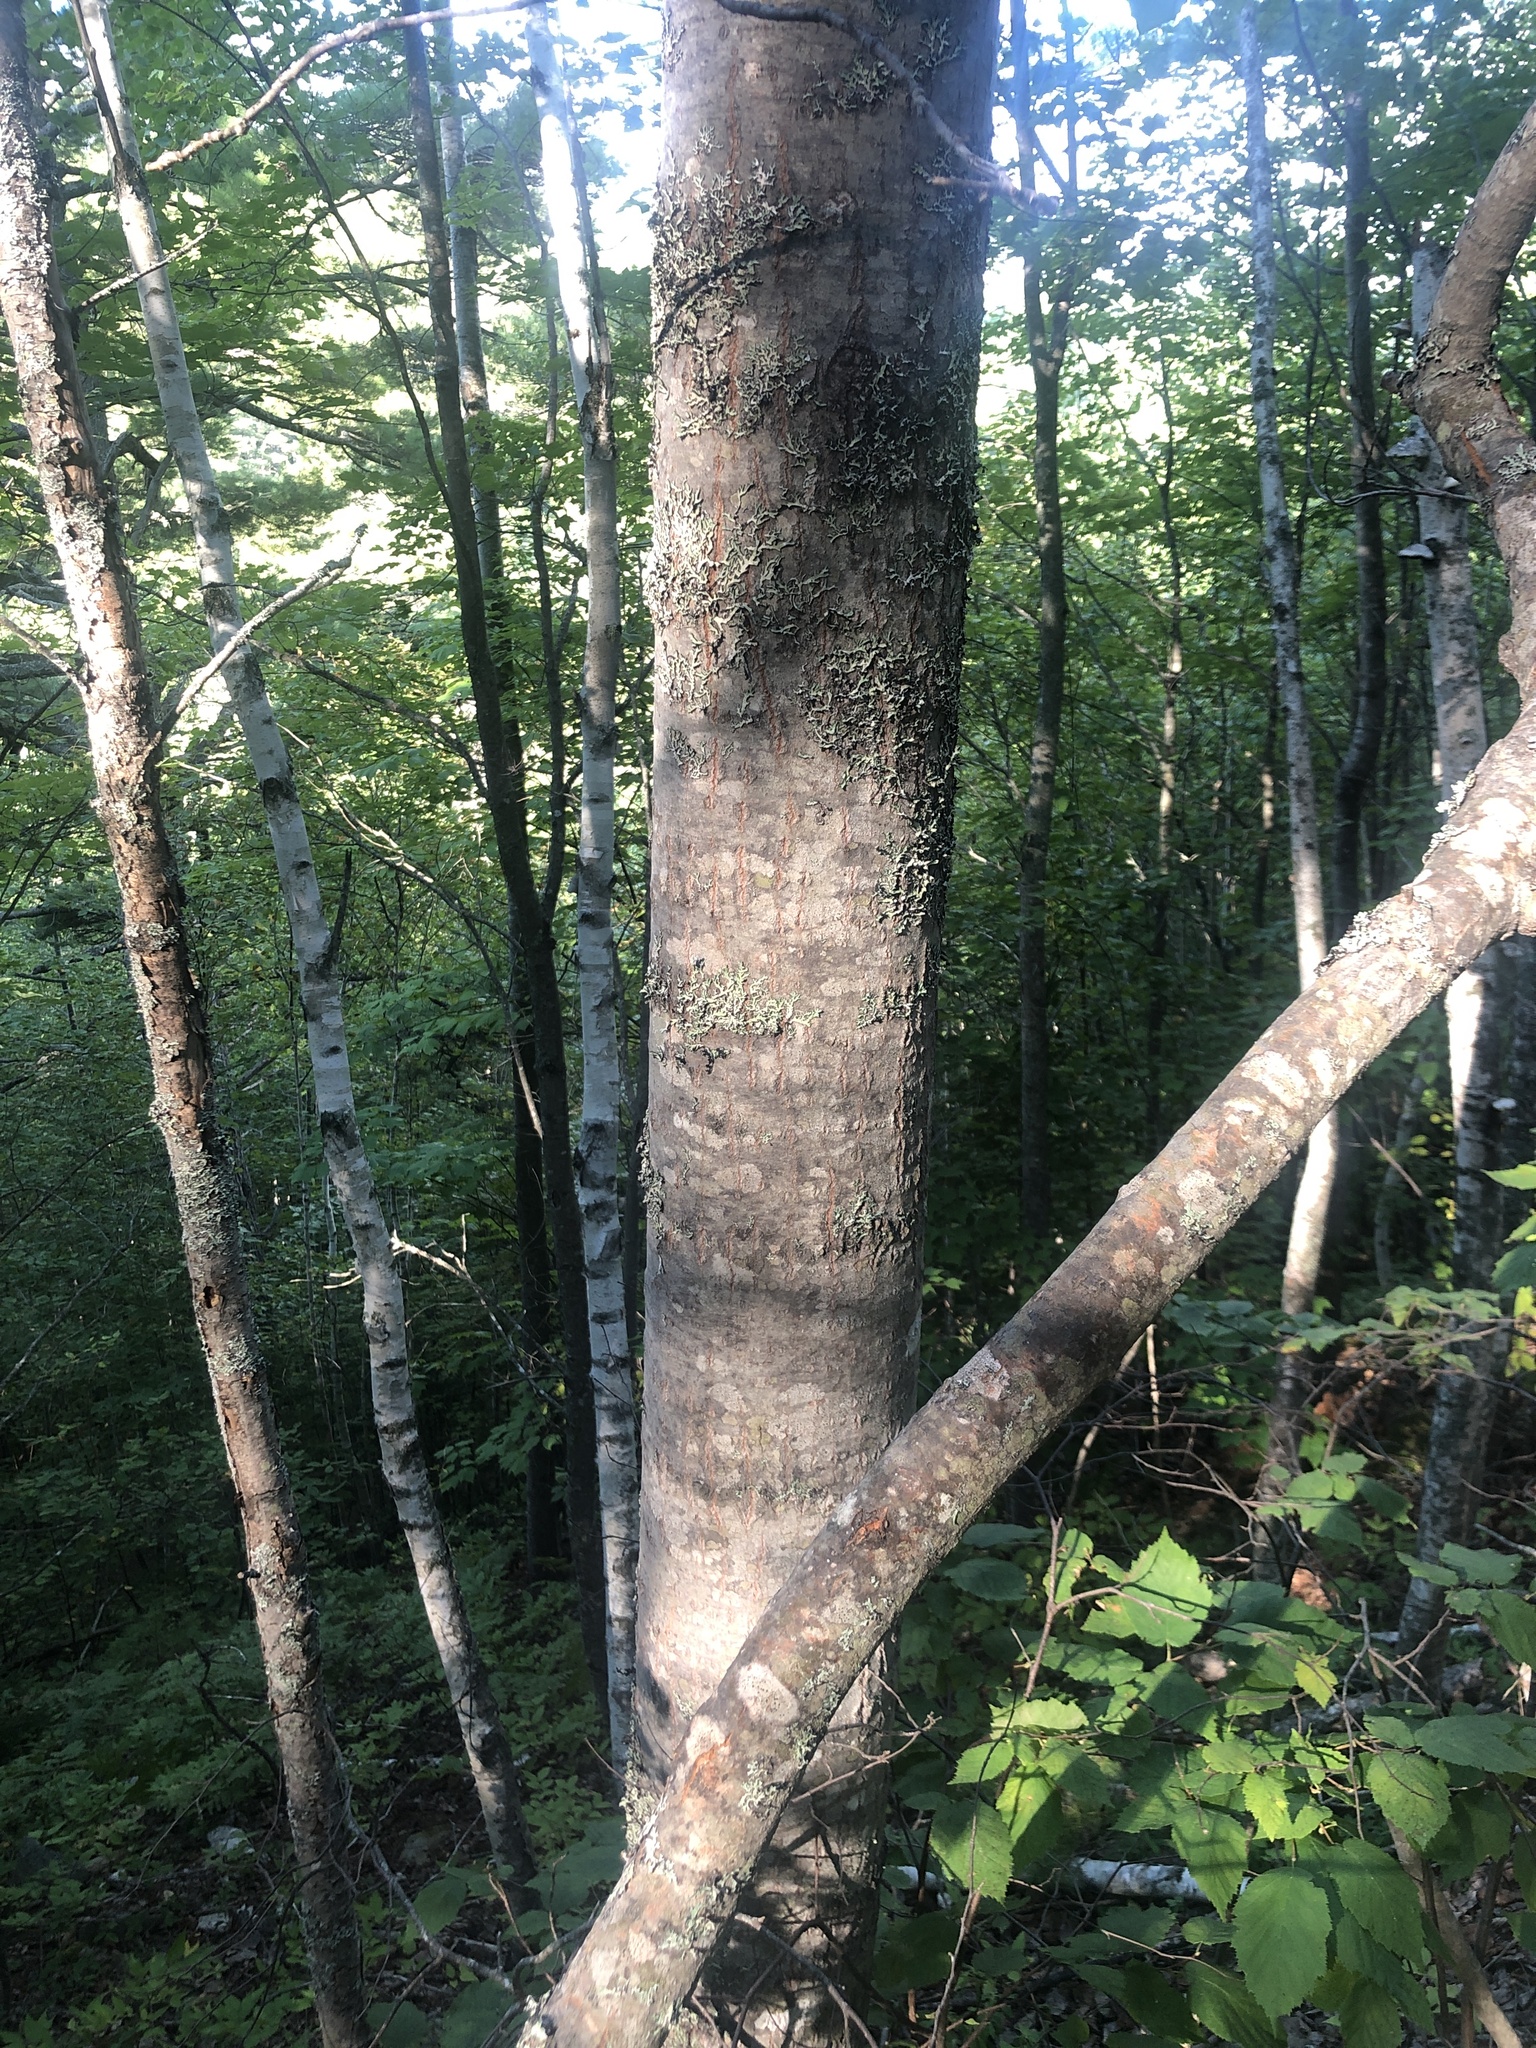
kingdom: Plantae
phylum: Tracheophyta
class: Magnoliopsida
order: Malpighiales
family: Salicaceae
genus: Populus
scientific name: Populus grandidentata
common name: Bigtooth aspen
